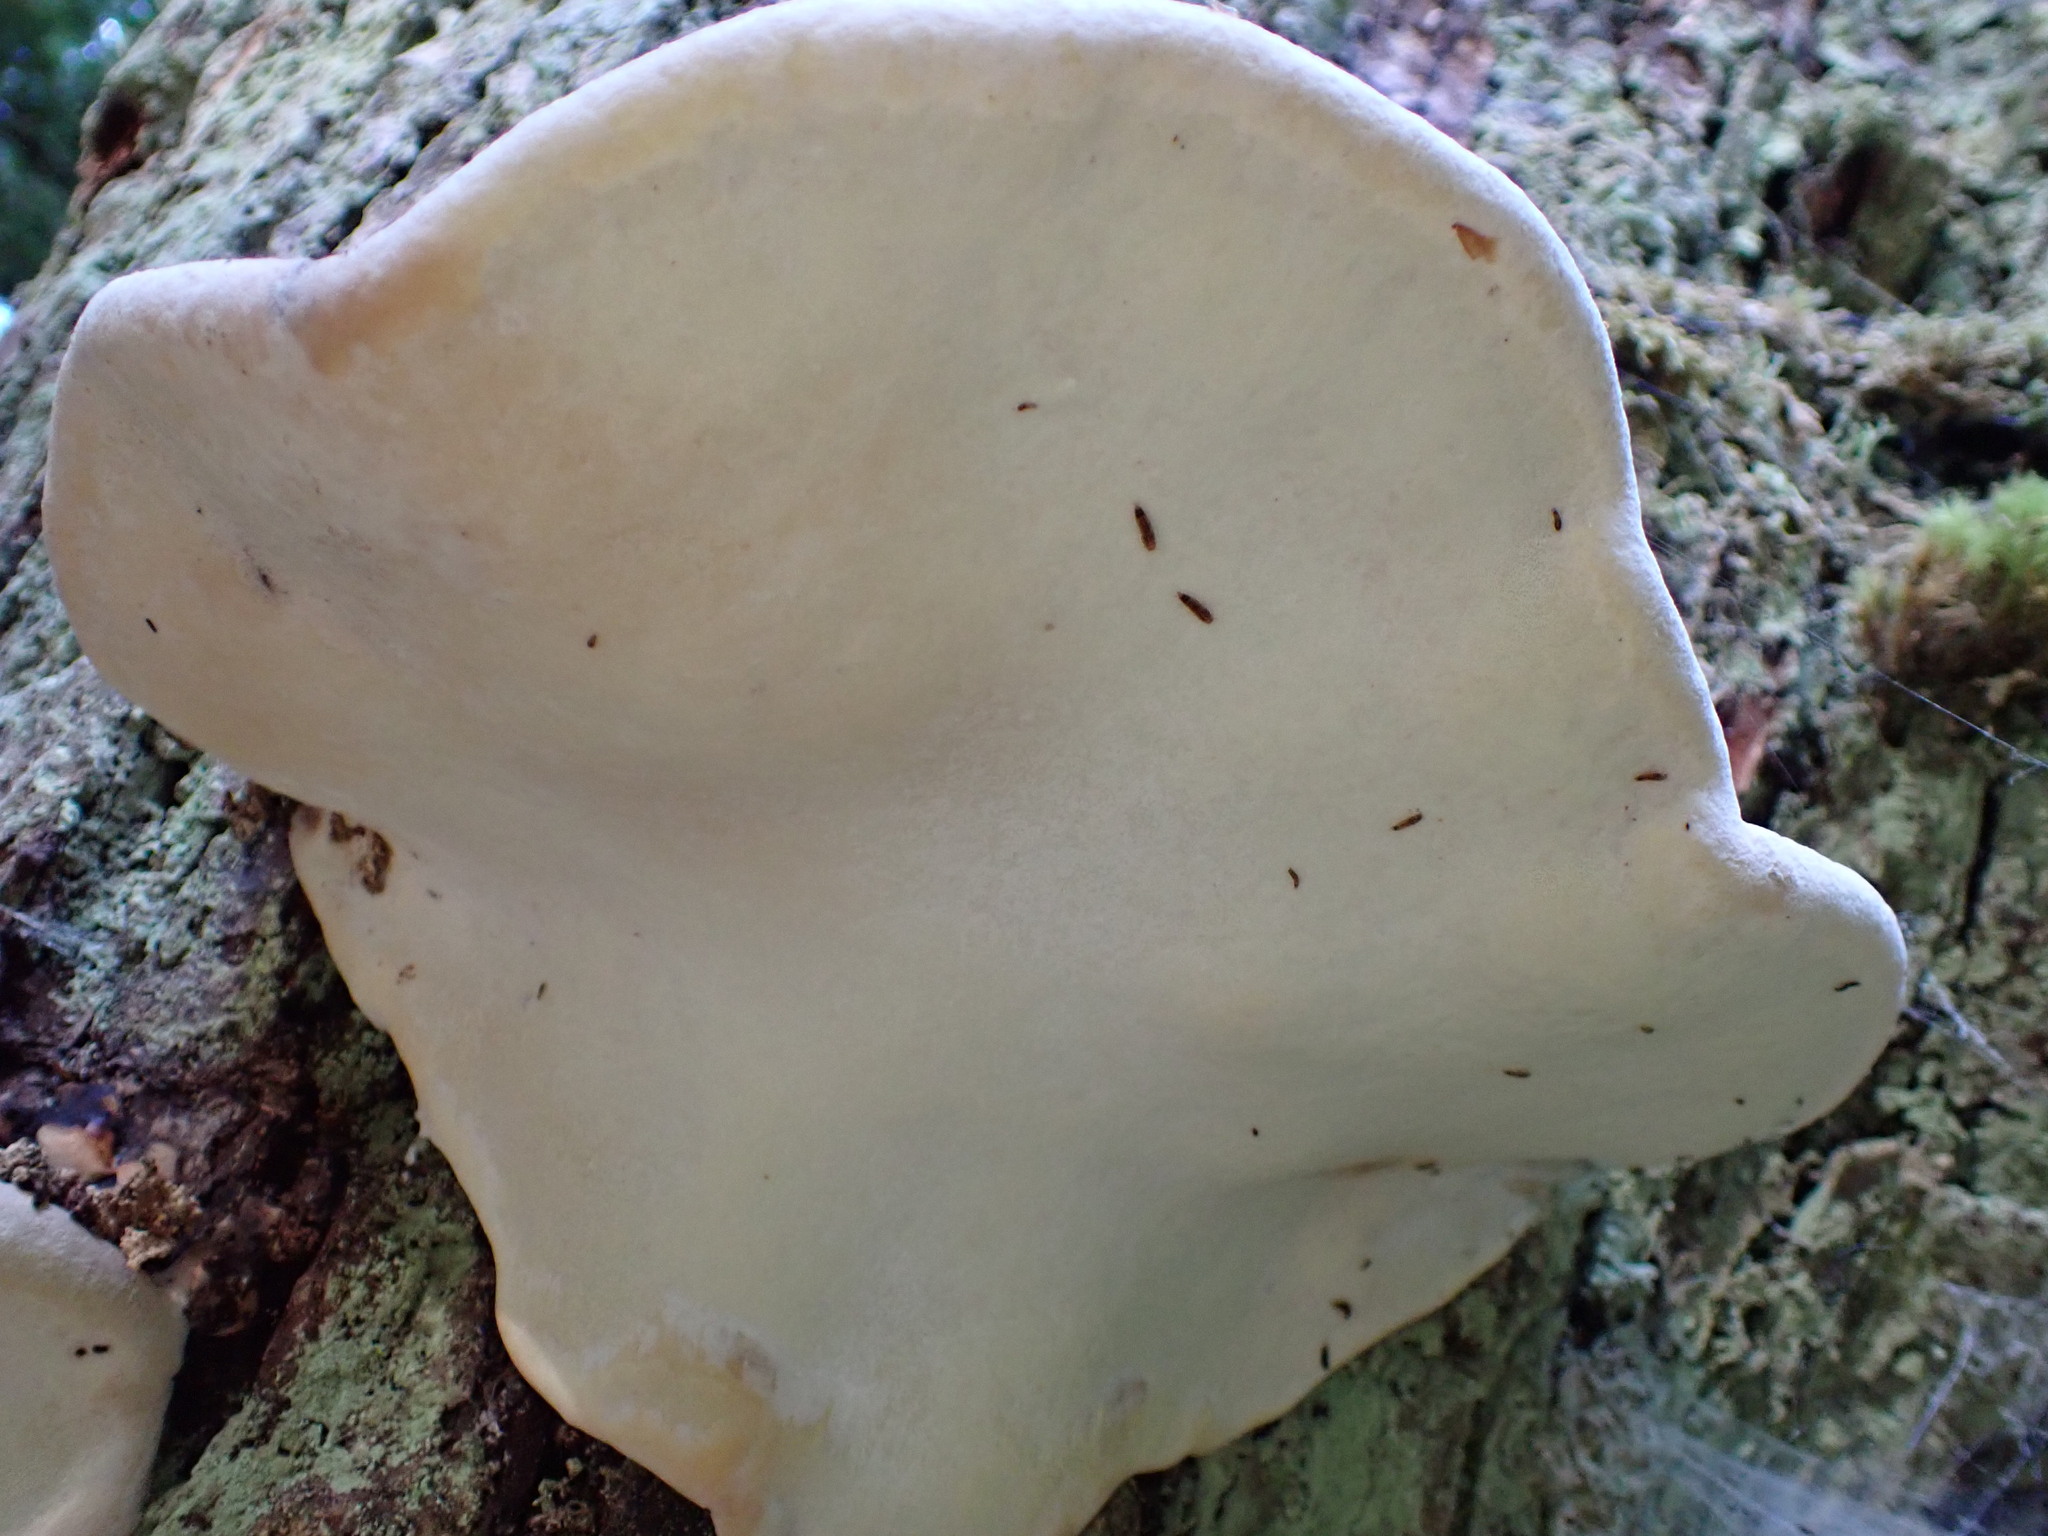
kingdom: Fungi
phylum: Basidiomycota
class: Agaricomycetes
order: Polyporales
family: Fomitopsidaceae
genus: Fomitopsis
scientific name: Fomitopsis mounceae
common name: Northern red belt
